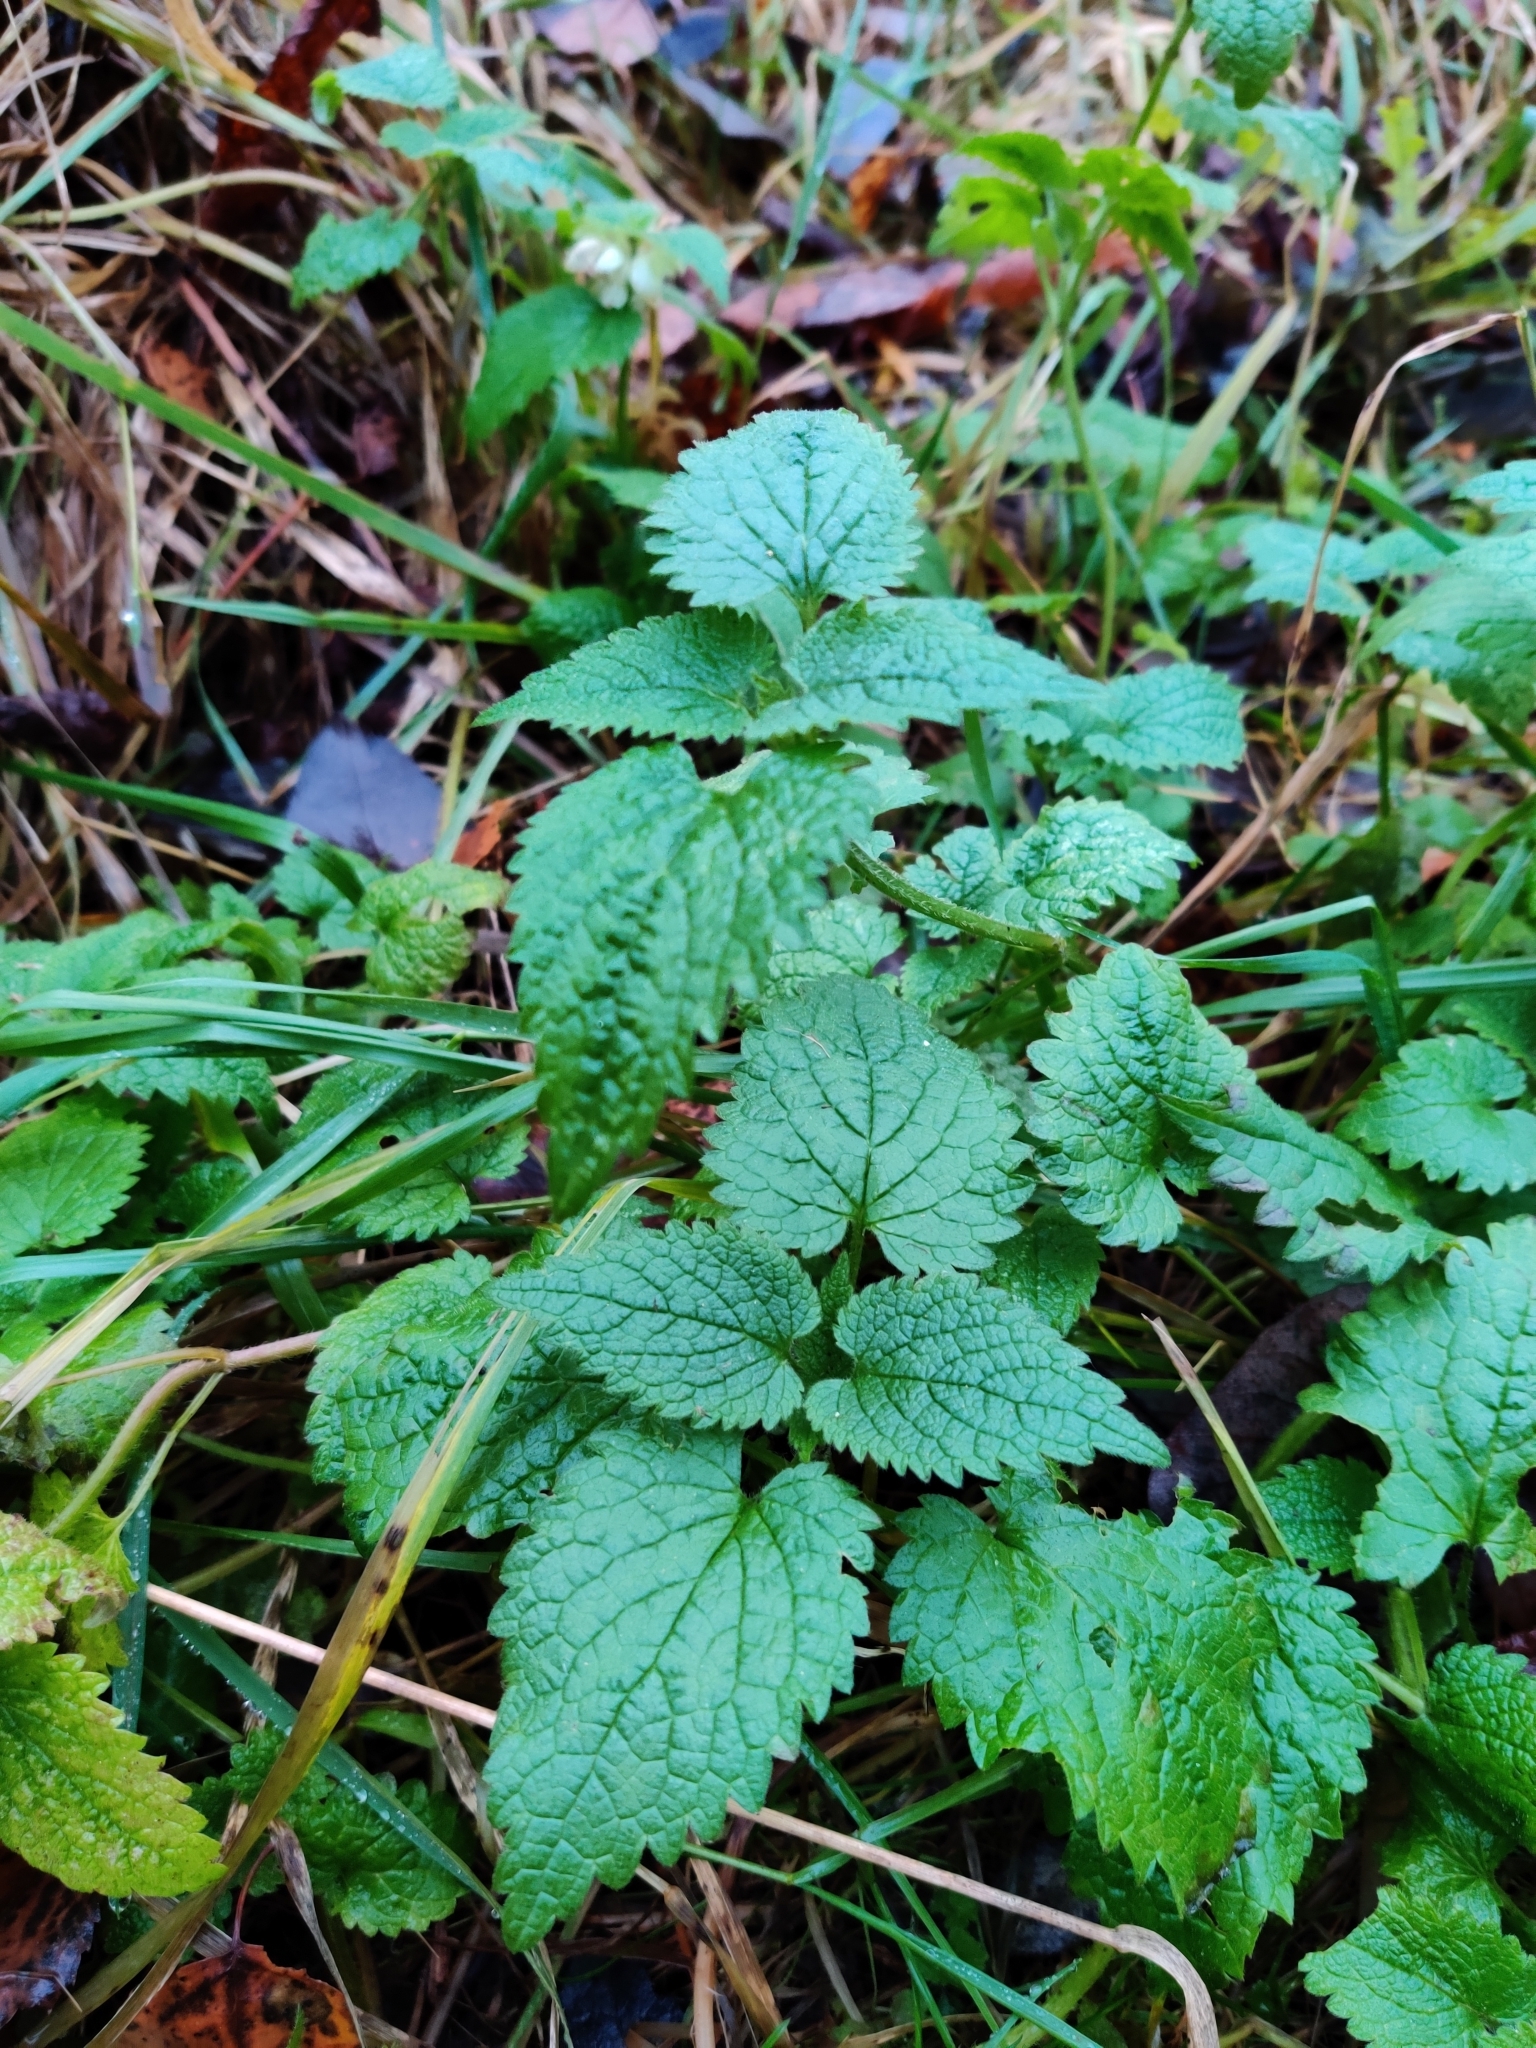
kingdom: Plantae
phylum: Tracheophyta
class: Magnoliopsida
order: Lamiales
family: Lamiaceae
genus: Lamium
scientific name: Lamium album
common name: White dead-nettle
